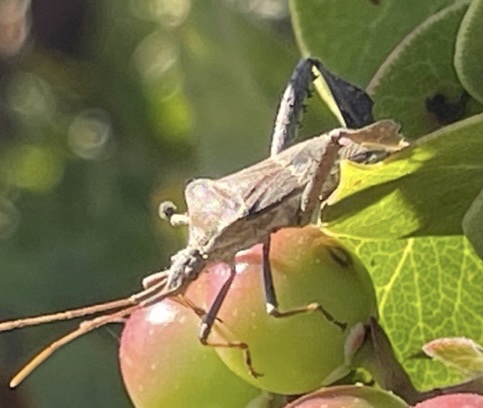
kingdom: Animalia
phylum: Arthropoda
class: Insecta
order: Hemiptera
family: Coreidae
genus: Leptoglossus
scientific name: Leptoglossus zonatus
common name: Large-legged bug
